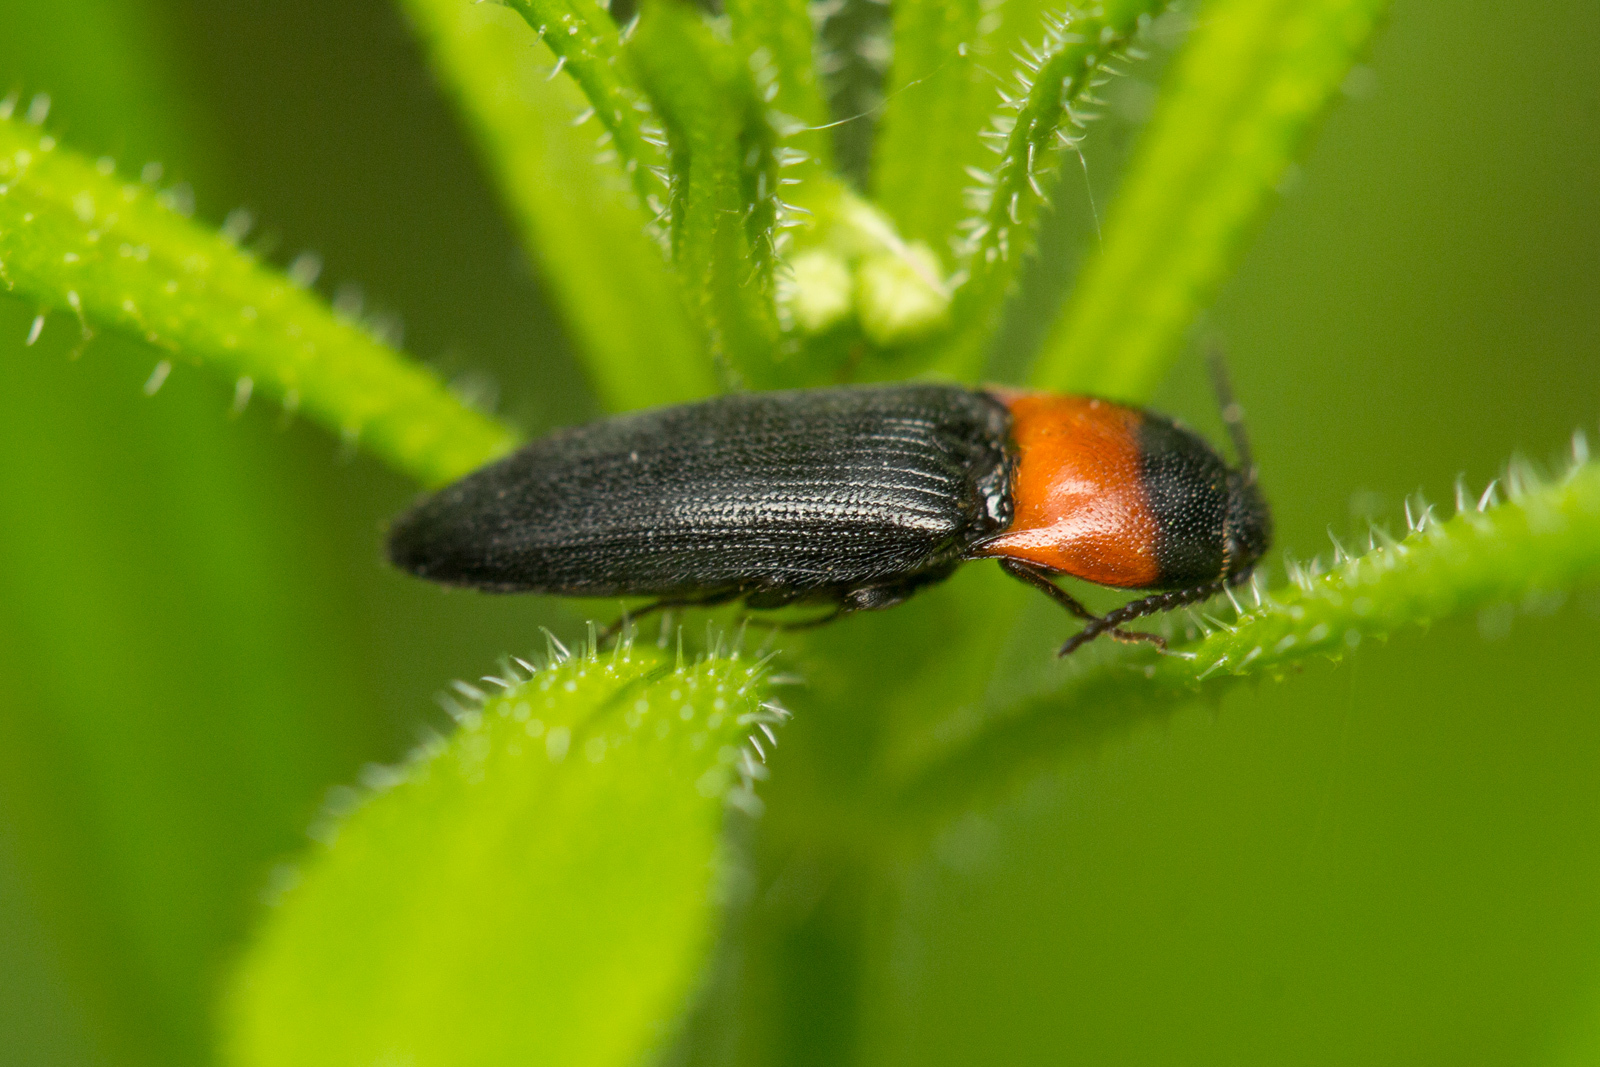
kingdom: Animalia
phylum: Arthropoda
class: Insecta
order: Coleoptera
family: Elateridae
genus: Ampedus
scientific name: Ampedus sinuatus
